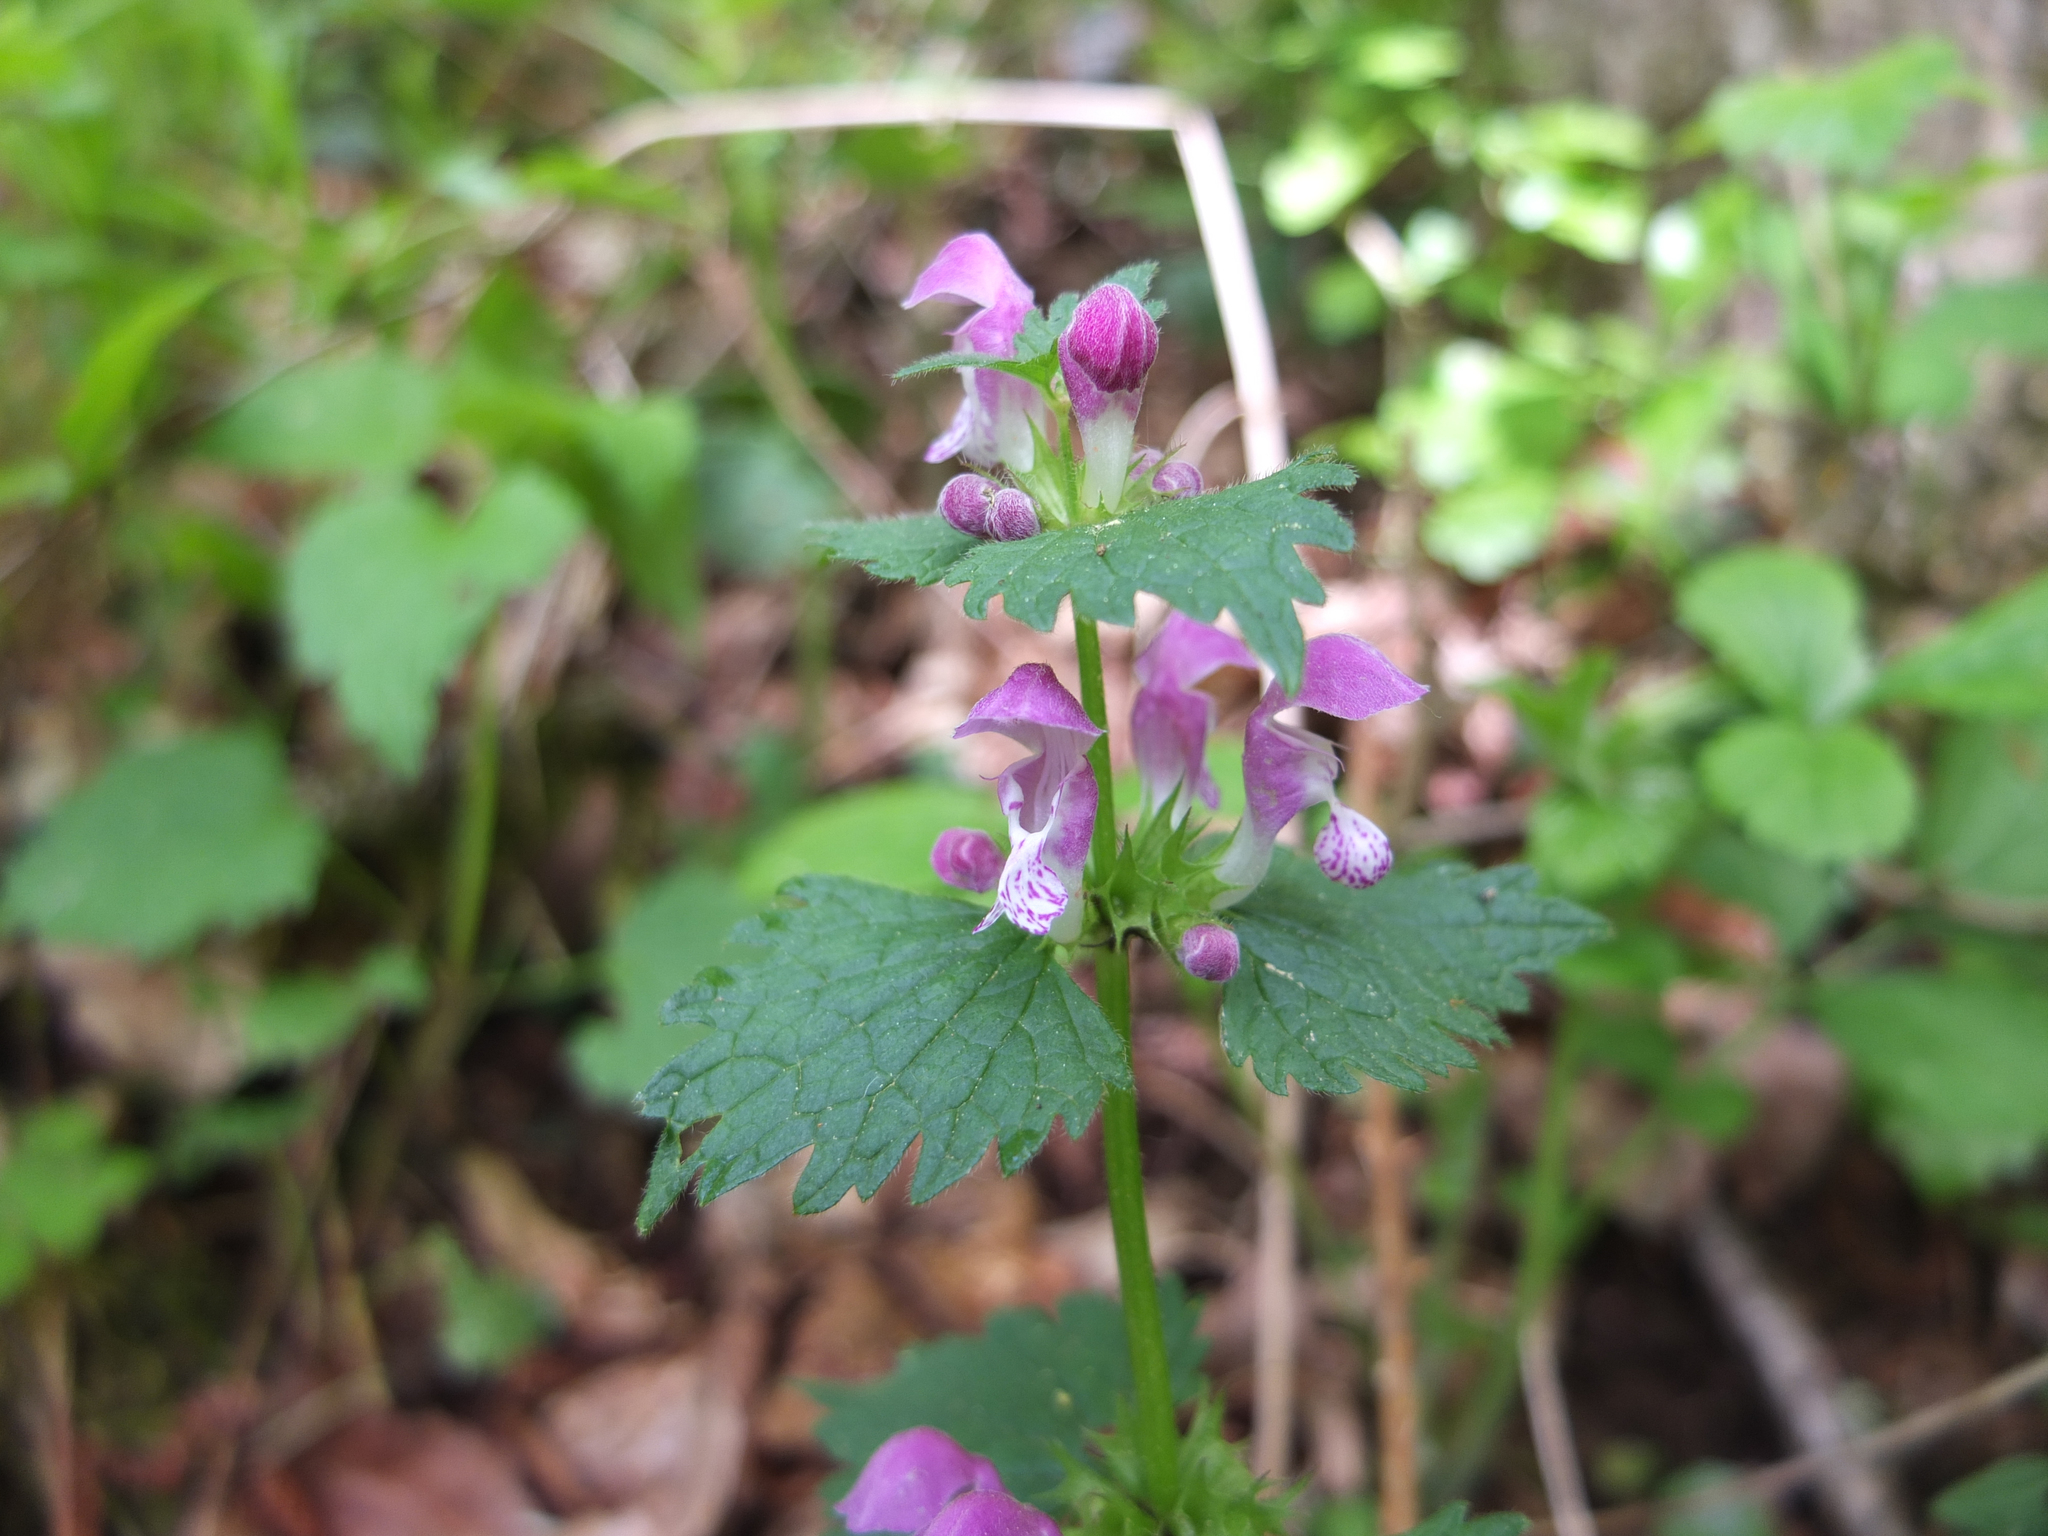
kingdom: Plantae
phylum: Tracheophyta
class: Magnoliopsida
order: Lamiales
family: Lamiaceae
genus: Lamium
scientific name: Lamium maculatum
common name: Spotted dead-nettle
